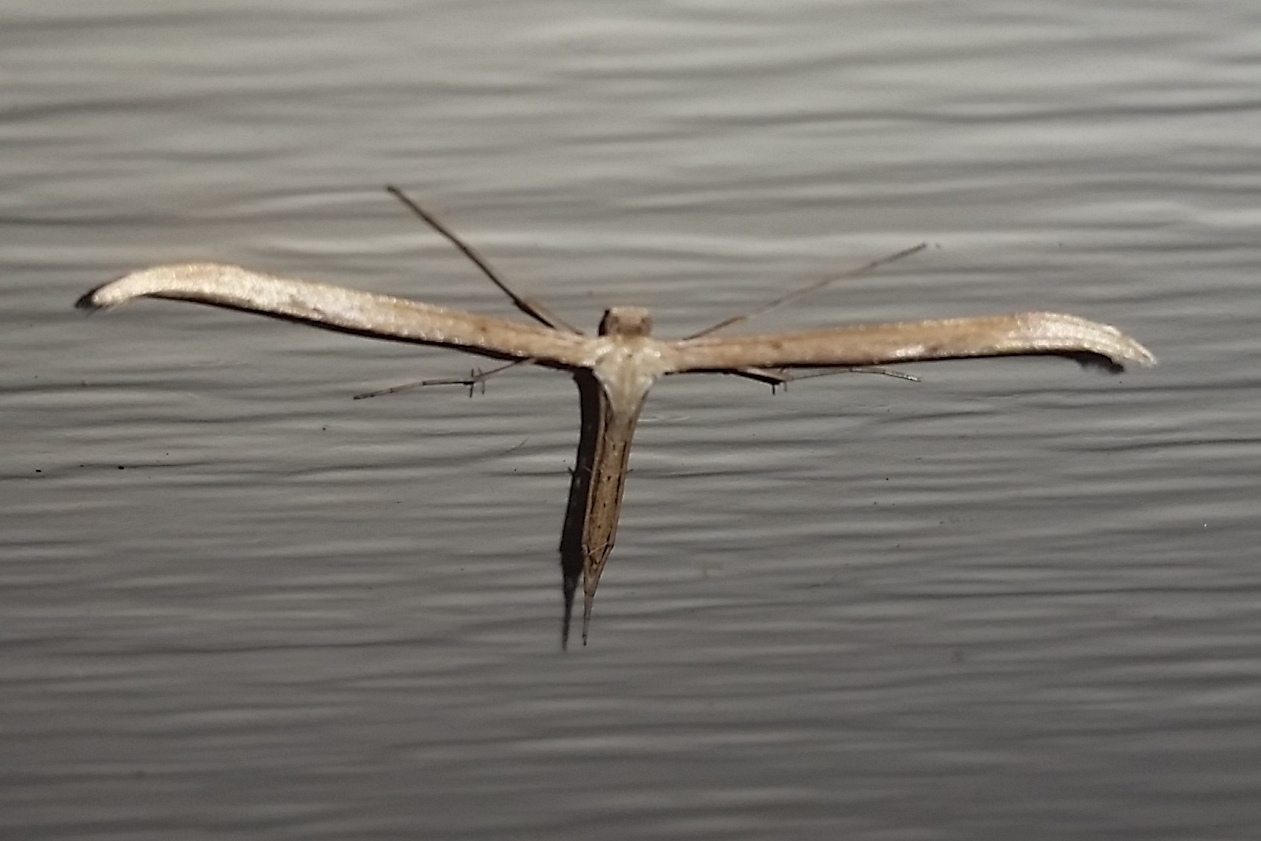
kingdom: Animalia
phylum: Arthropoda
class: Insecta
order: Lepidoptera
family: Pterophoridae
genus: Emmelina
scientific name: Emmelina monodactyla
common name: Common plume
